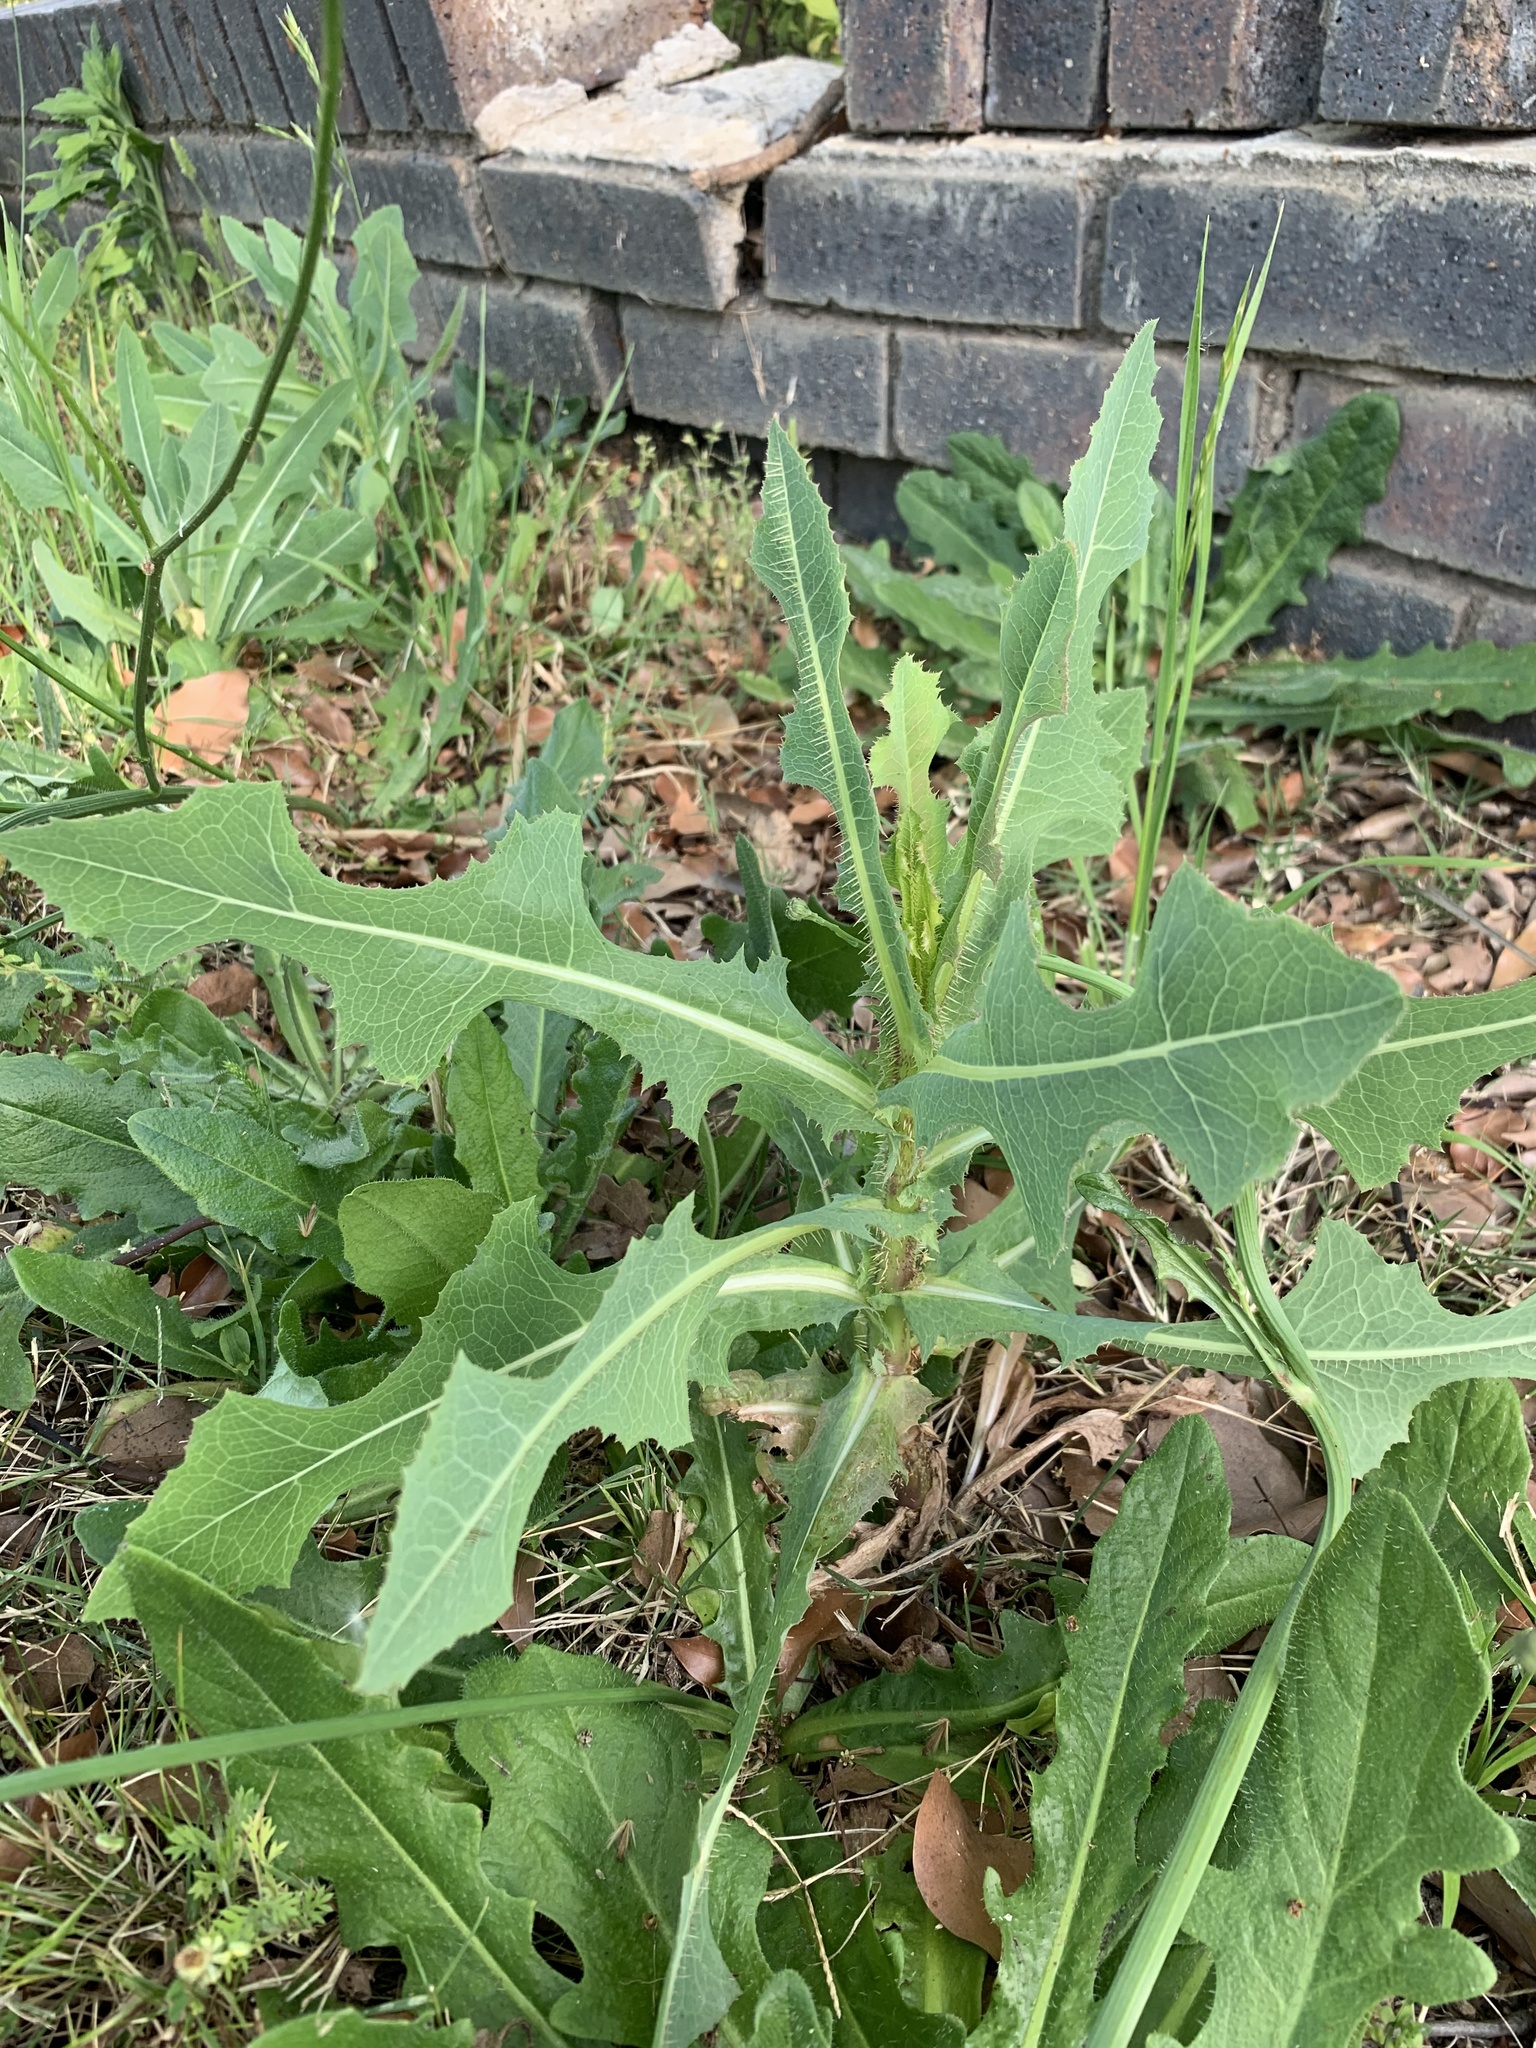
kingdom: Plantae
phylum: Tracheophyta
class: Magnoliopsida
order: Asterales
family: Asteraceae
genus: Lactuca
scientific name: Lactuca serriola
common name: Prickly lettuce
